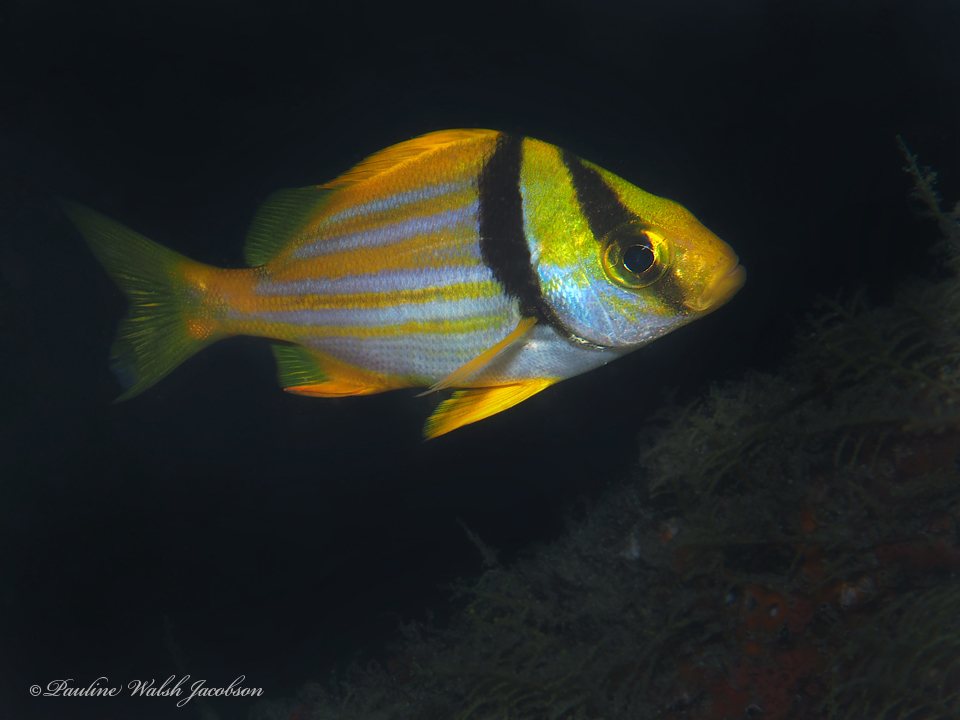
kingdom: Animalia
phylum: Chordata
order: Perciformes
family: Haemulidae
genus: Anisotremus
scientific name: Anisotremus virginicus
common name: Porkfish
